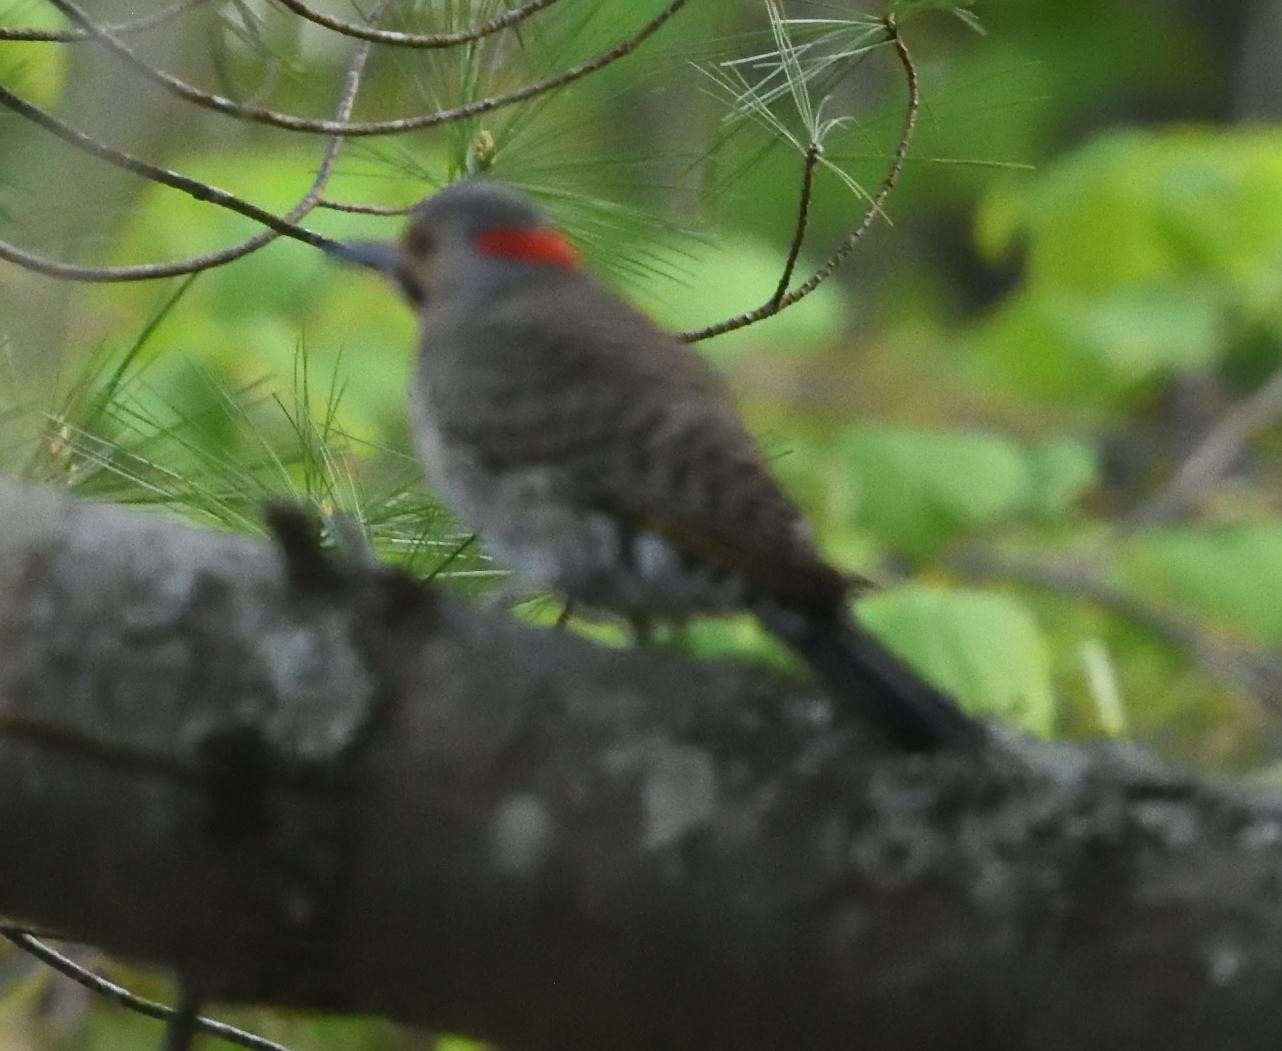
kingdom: Animalia
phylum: Chordata
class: Aves
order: Piciformes
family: Picidae
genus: Colaptes
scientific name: Colaptes auratus
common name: Northern flicker
